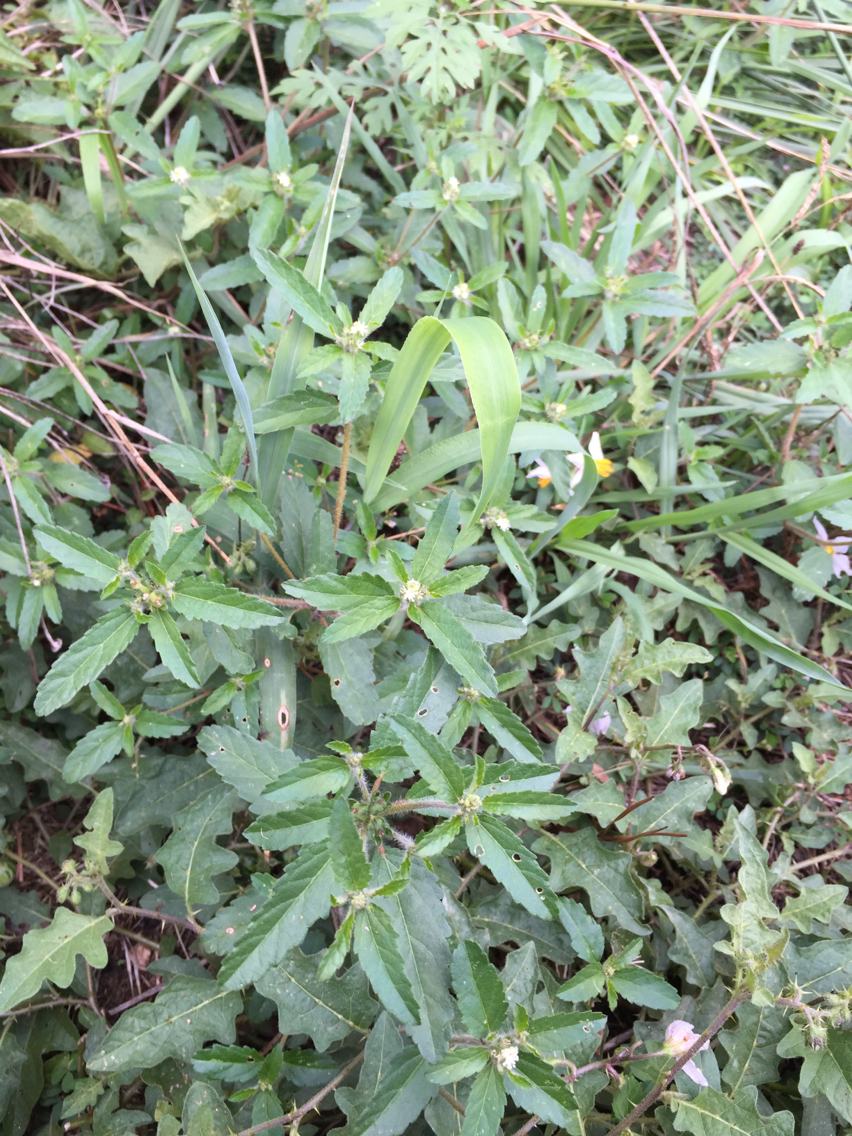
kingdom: Plantae
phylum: Tracheophyta
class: Magnoliopsida
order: Malpighiales
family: Euphorbiaceae
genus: Croton
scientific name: Croton glandulosus
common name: Tropic croton
